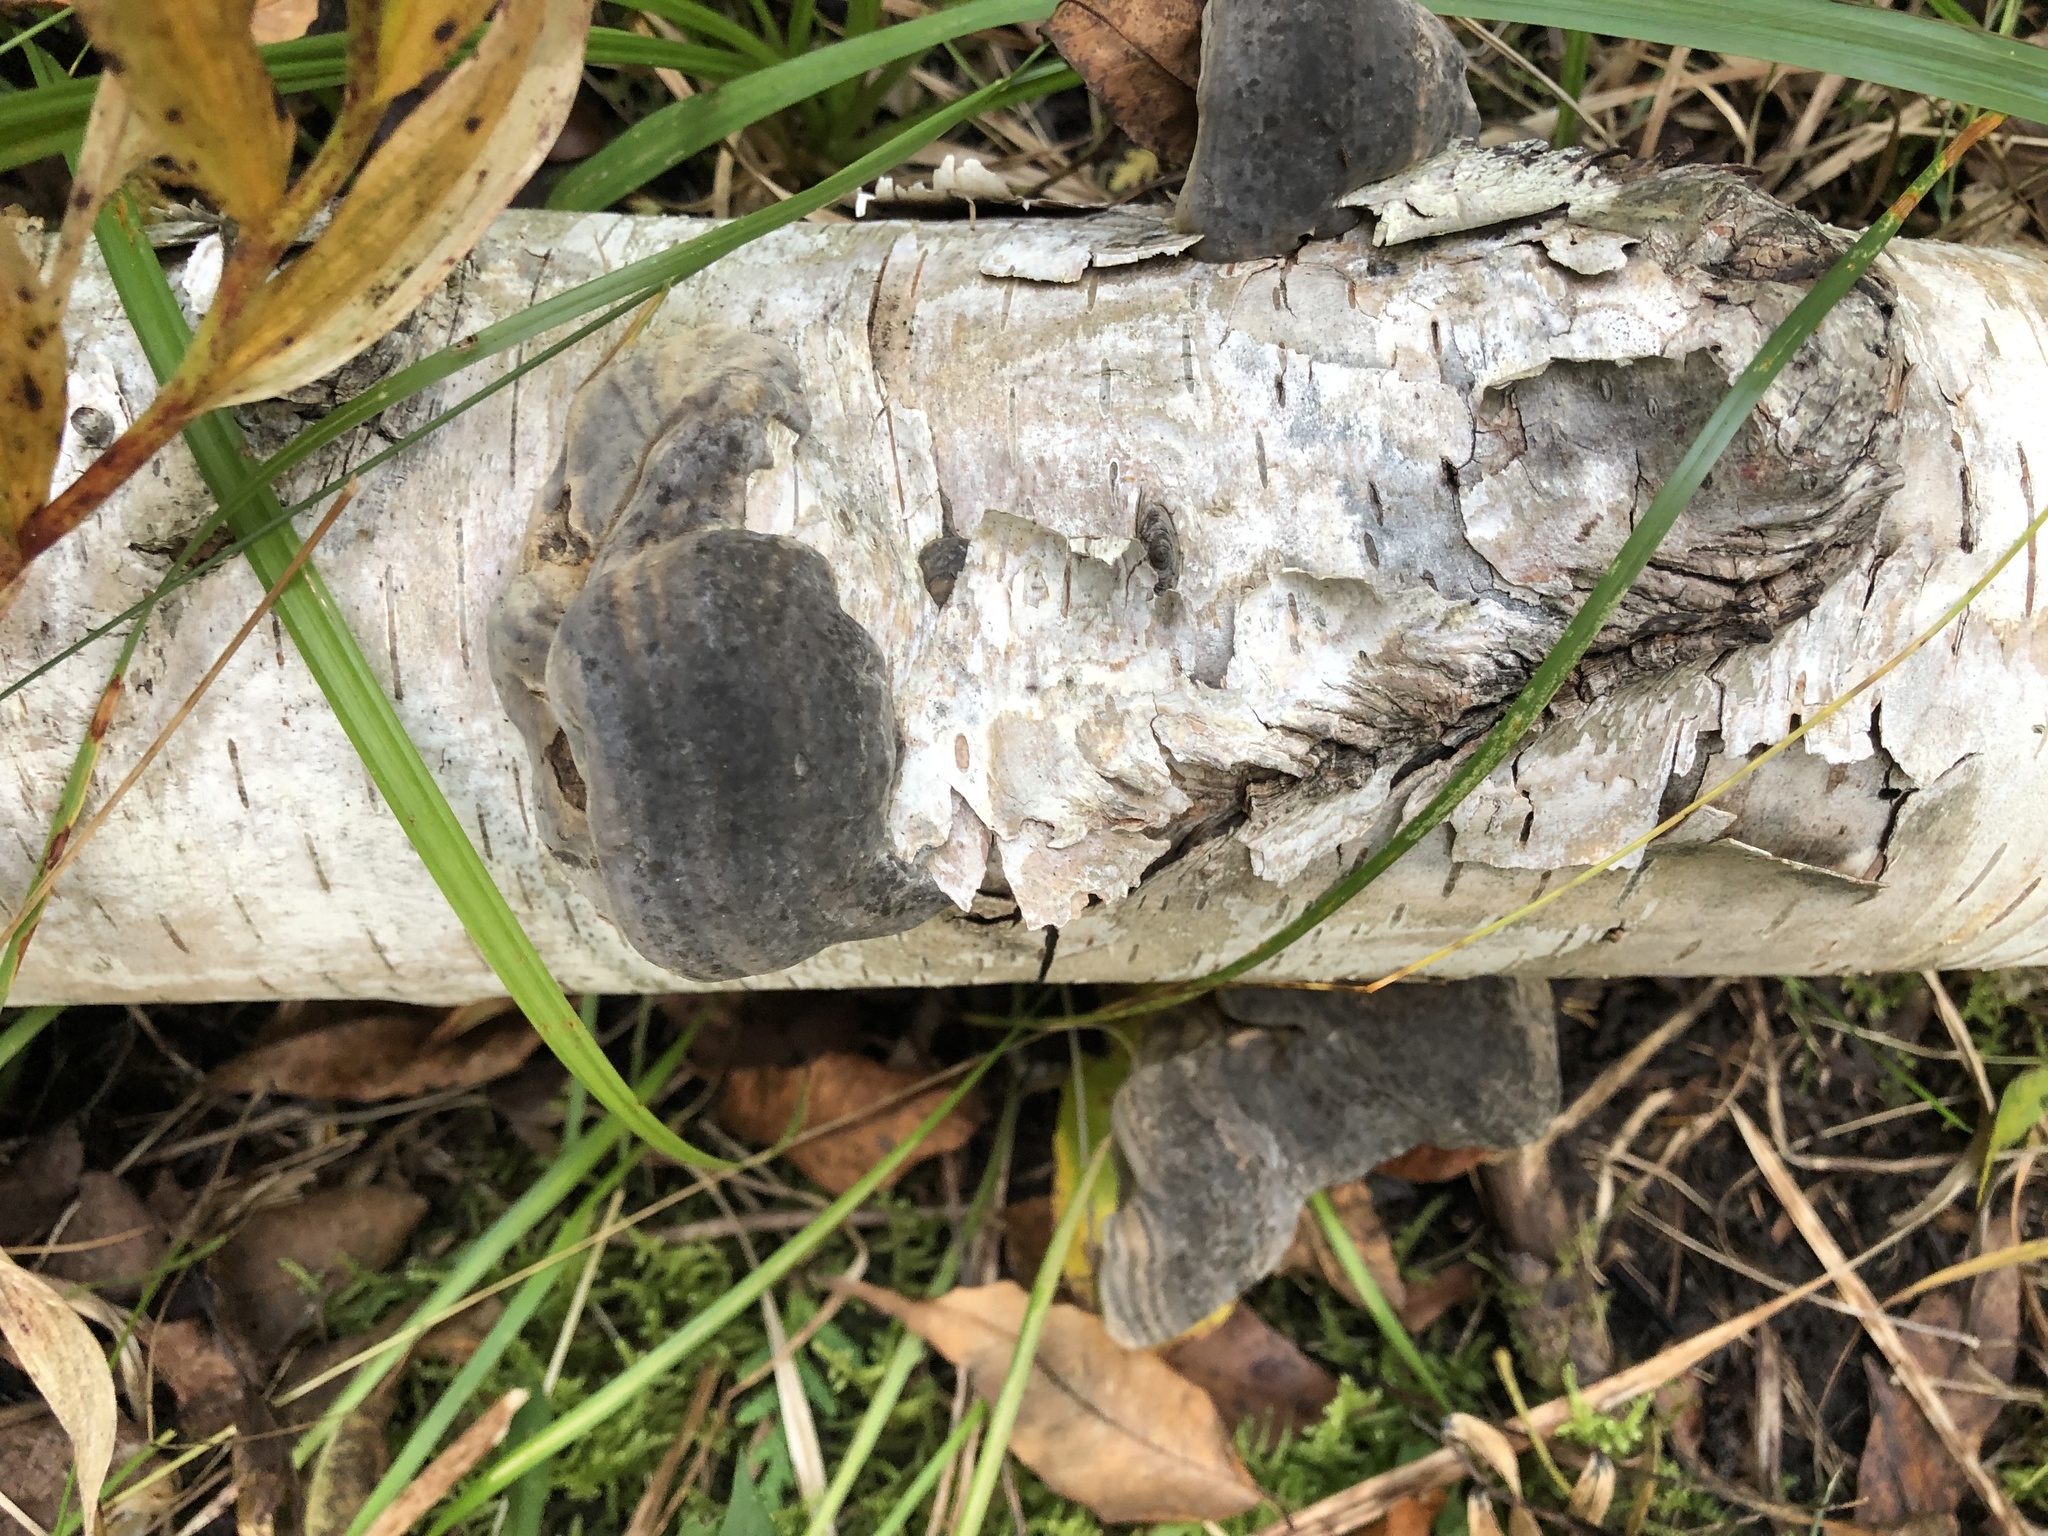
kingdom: Fungi
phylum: Basidiomycota
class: Agaricomycetes
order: Polyporales
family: Polyporaceae
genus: Fomes
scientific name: Fomes fomentarius
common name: Hoof fungus
